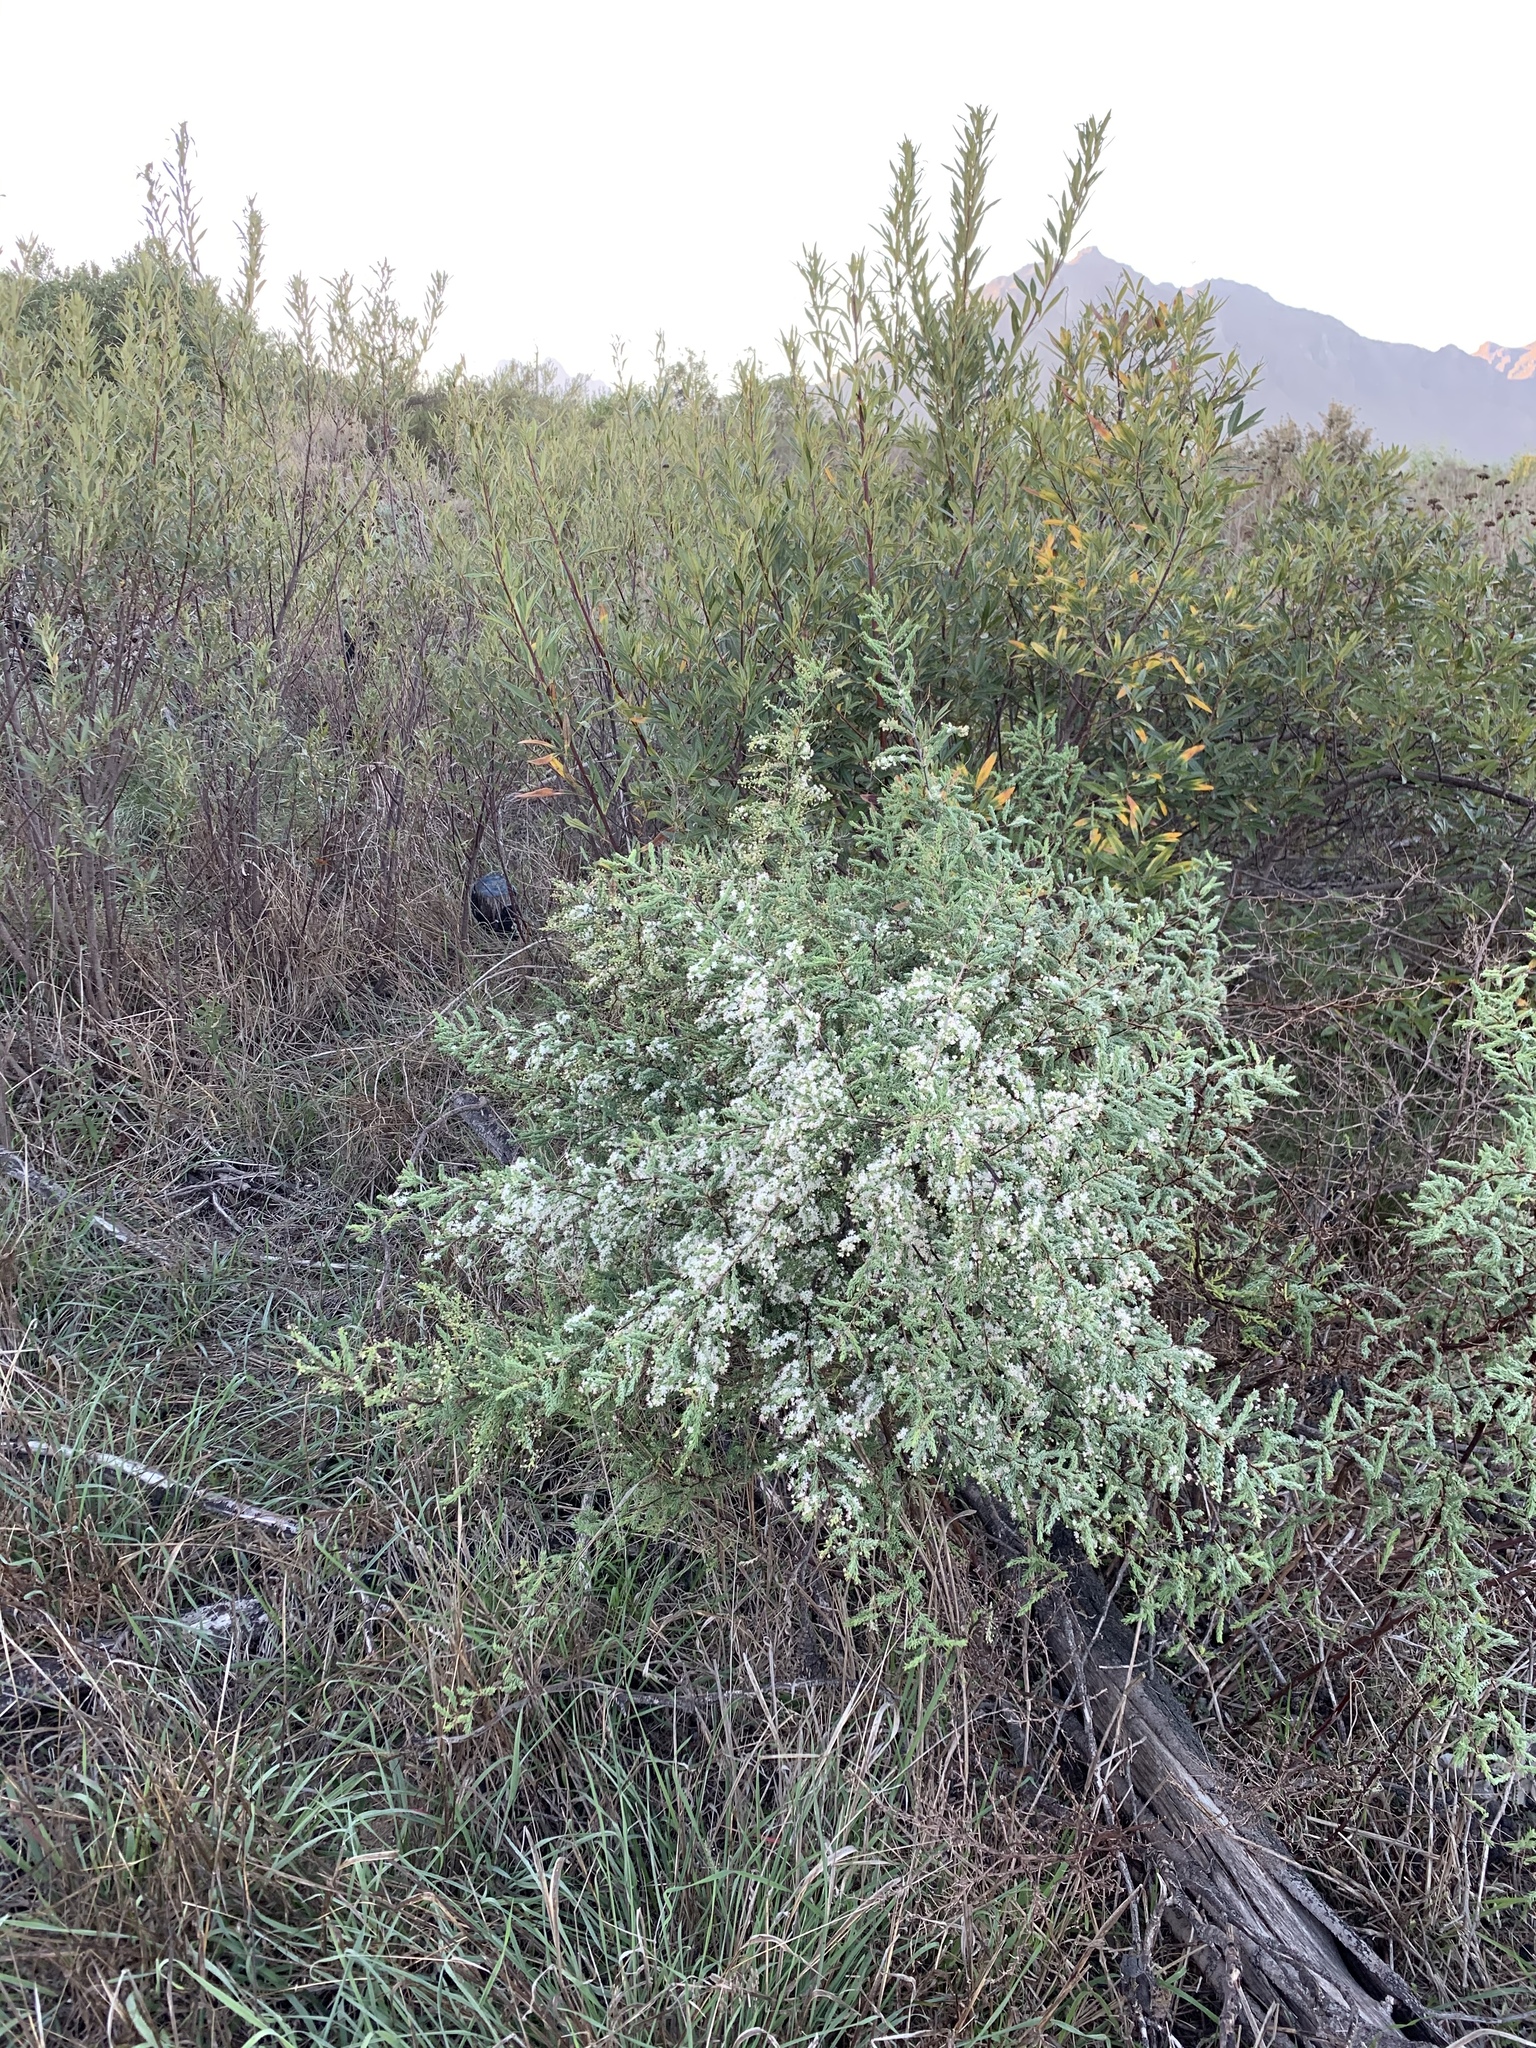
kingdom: Plantae
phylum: Tracheophyta
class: Liliopsida
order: Asparagales
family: Asparagaceae
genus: Asparagus
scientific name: Asparagus rubicundus
